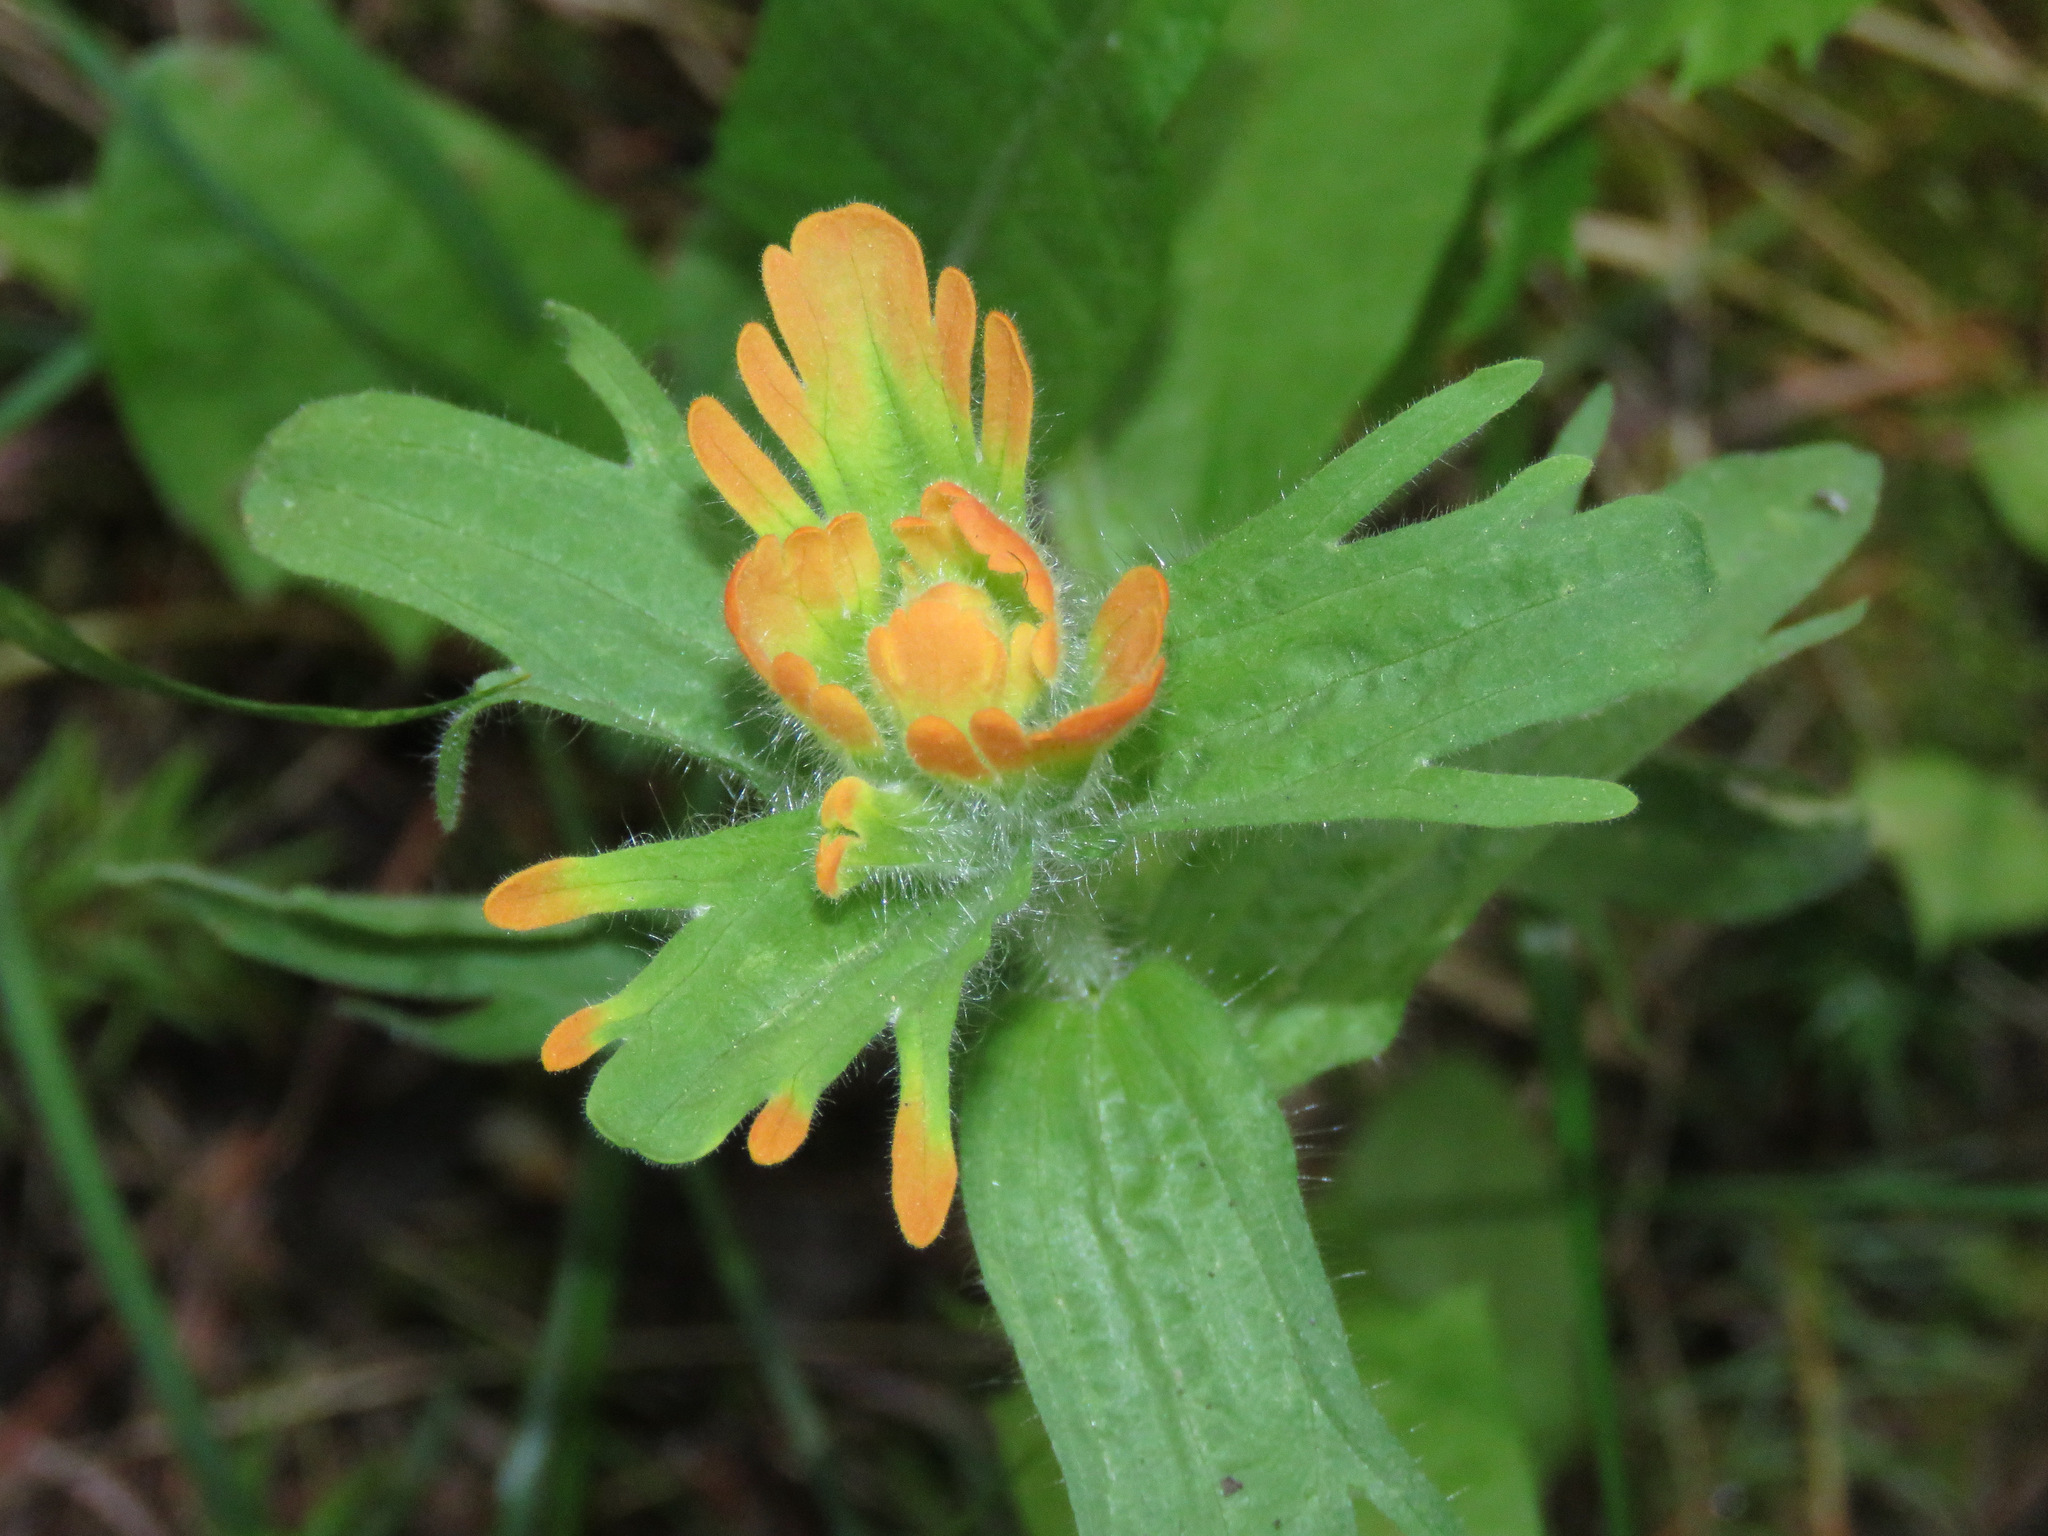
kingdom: Plantae
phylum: Tracheophyta
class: Magnoliopsida
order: Lamiales
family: Orobanchaceae
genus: Castilleja
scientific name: Castilleja hispida
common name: Bristly paintbrush
